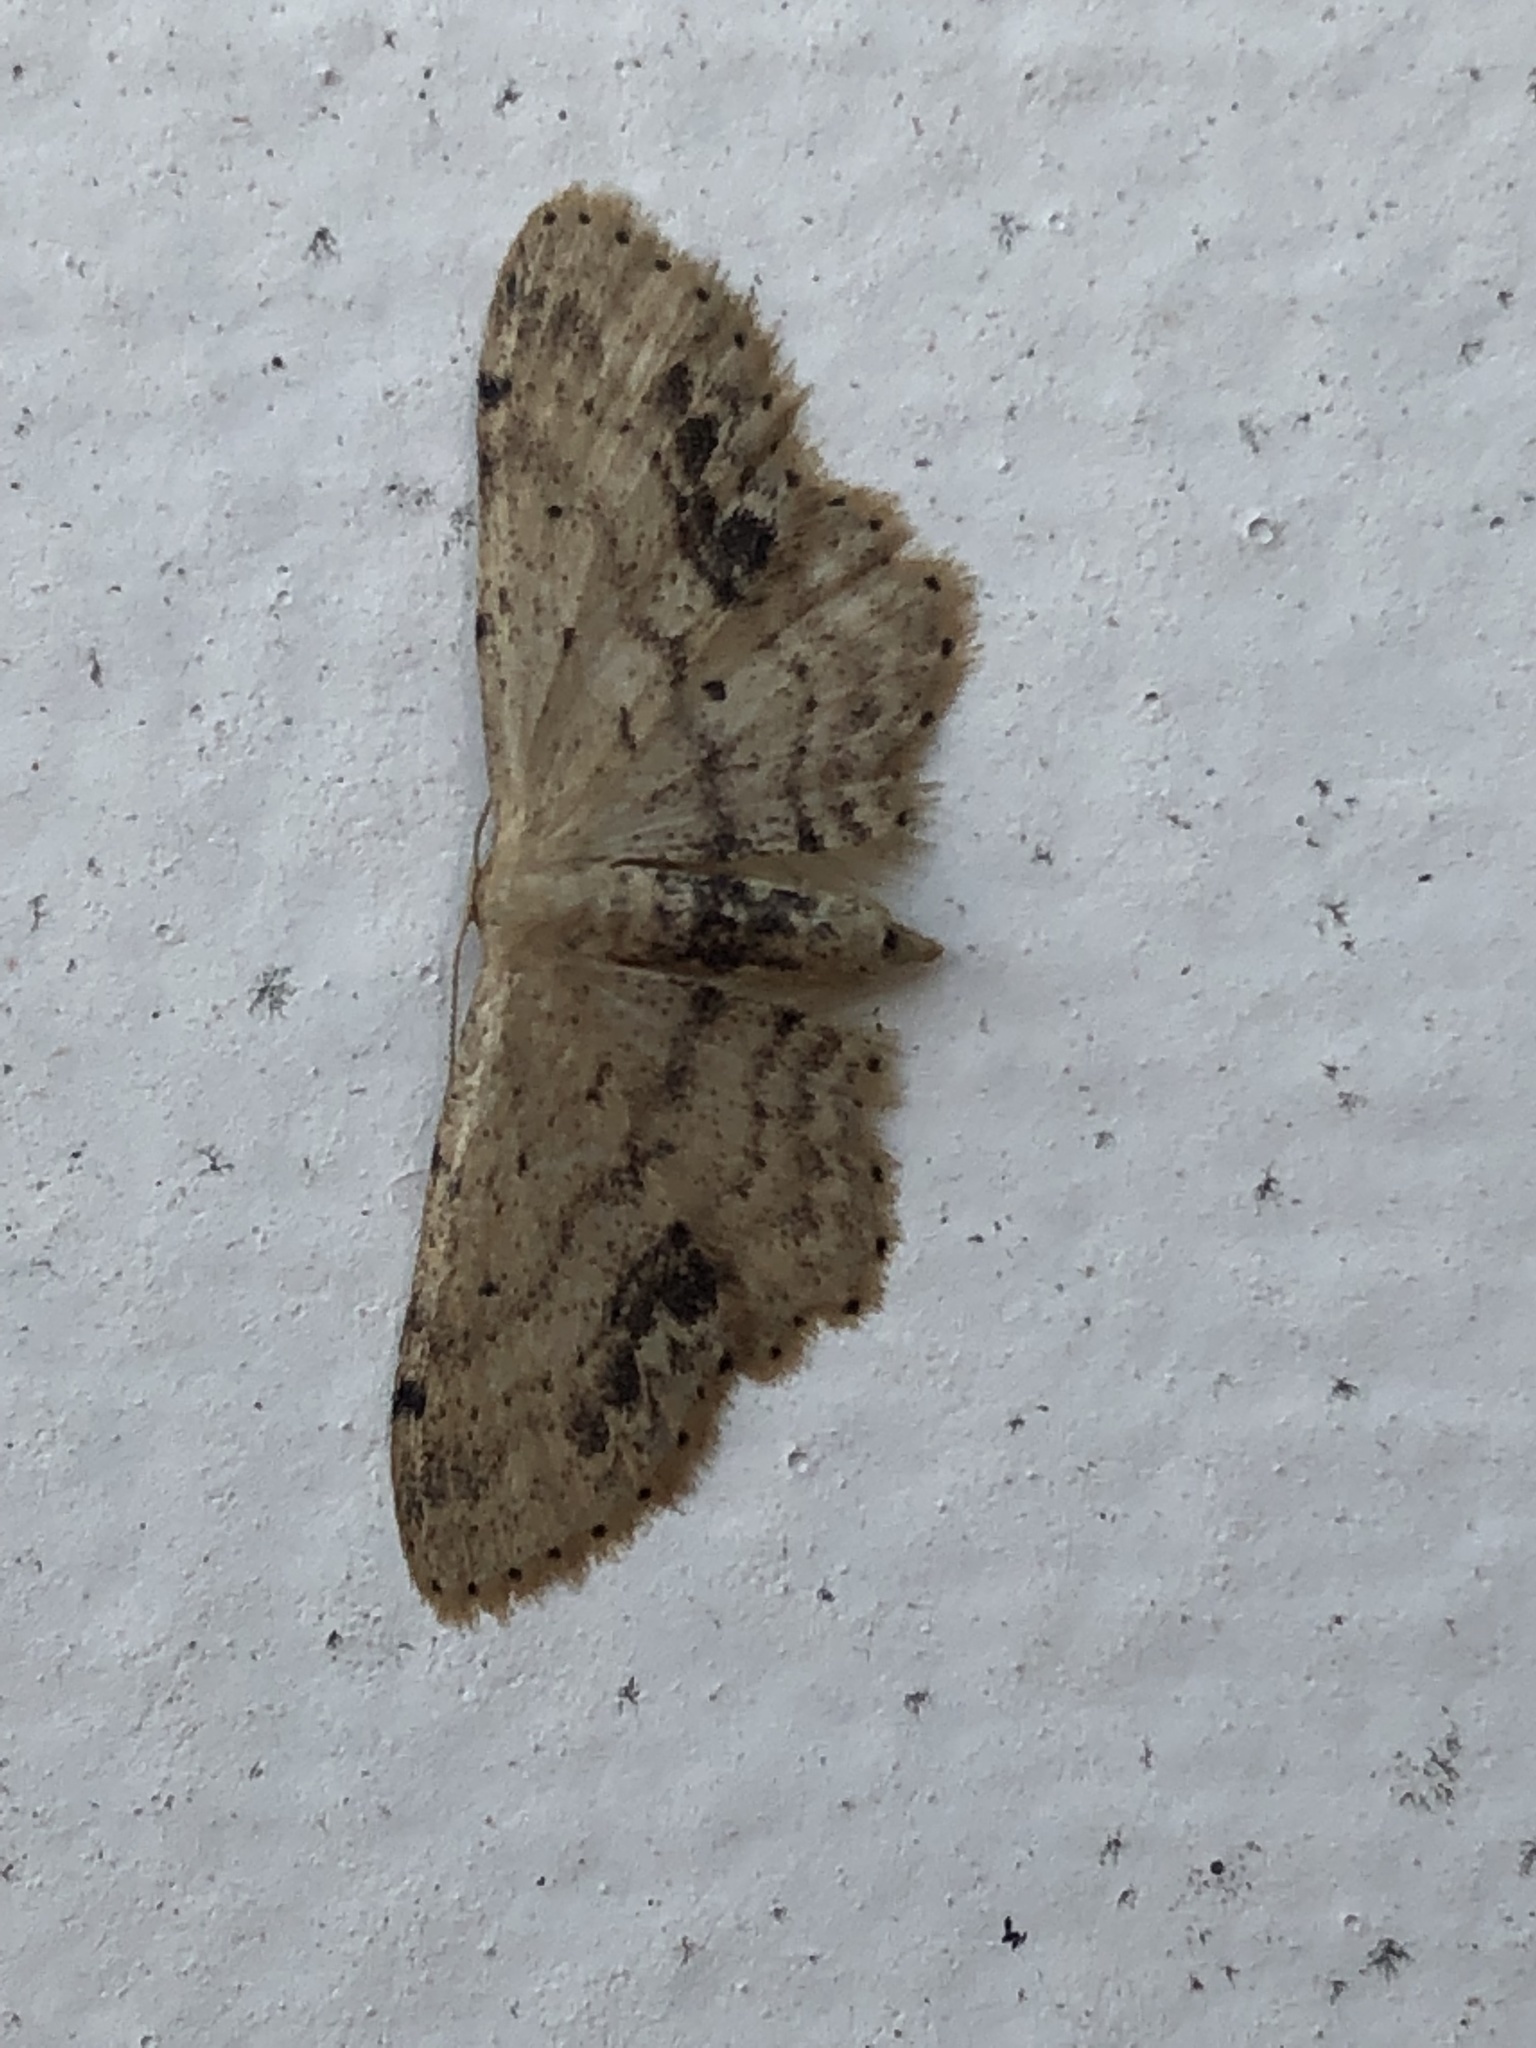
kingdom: Animalia
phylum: Arthropoda
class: Insecta
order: Lepidoptera
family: Geometridae
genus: Idaea
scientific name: Idaea dimidiata
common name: Single-dotted wave
